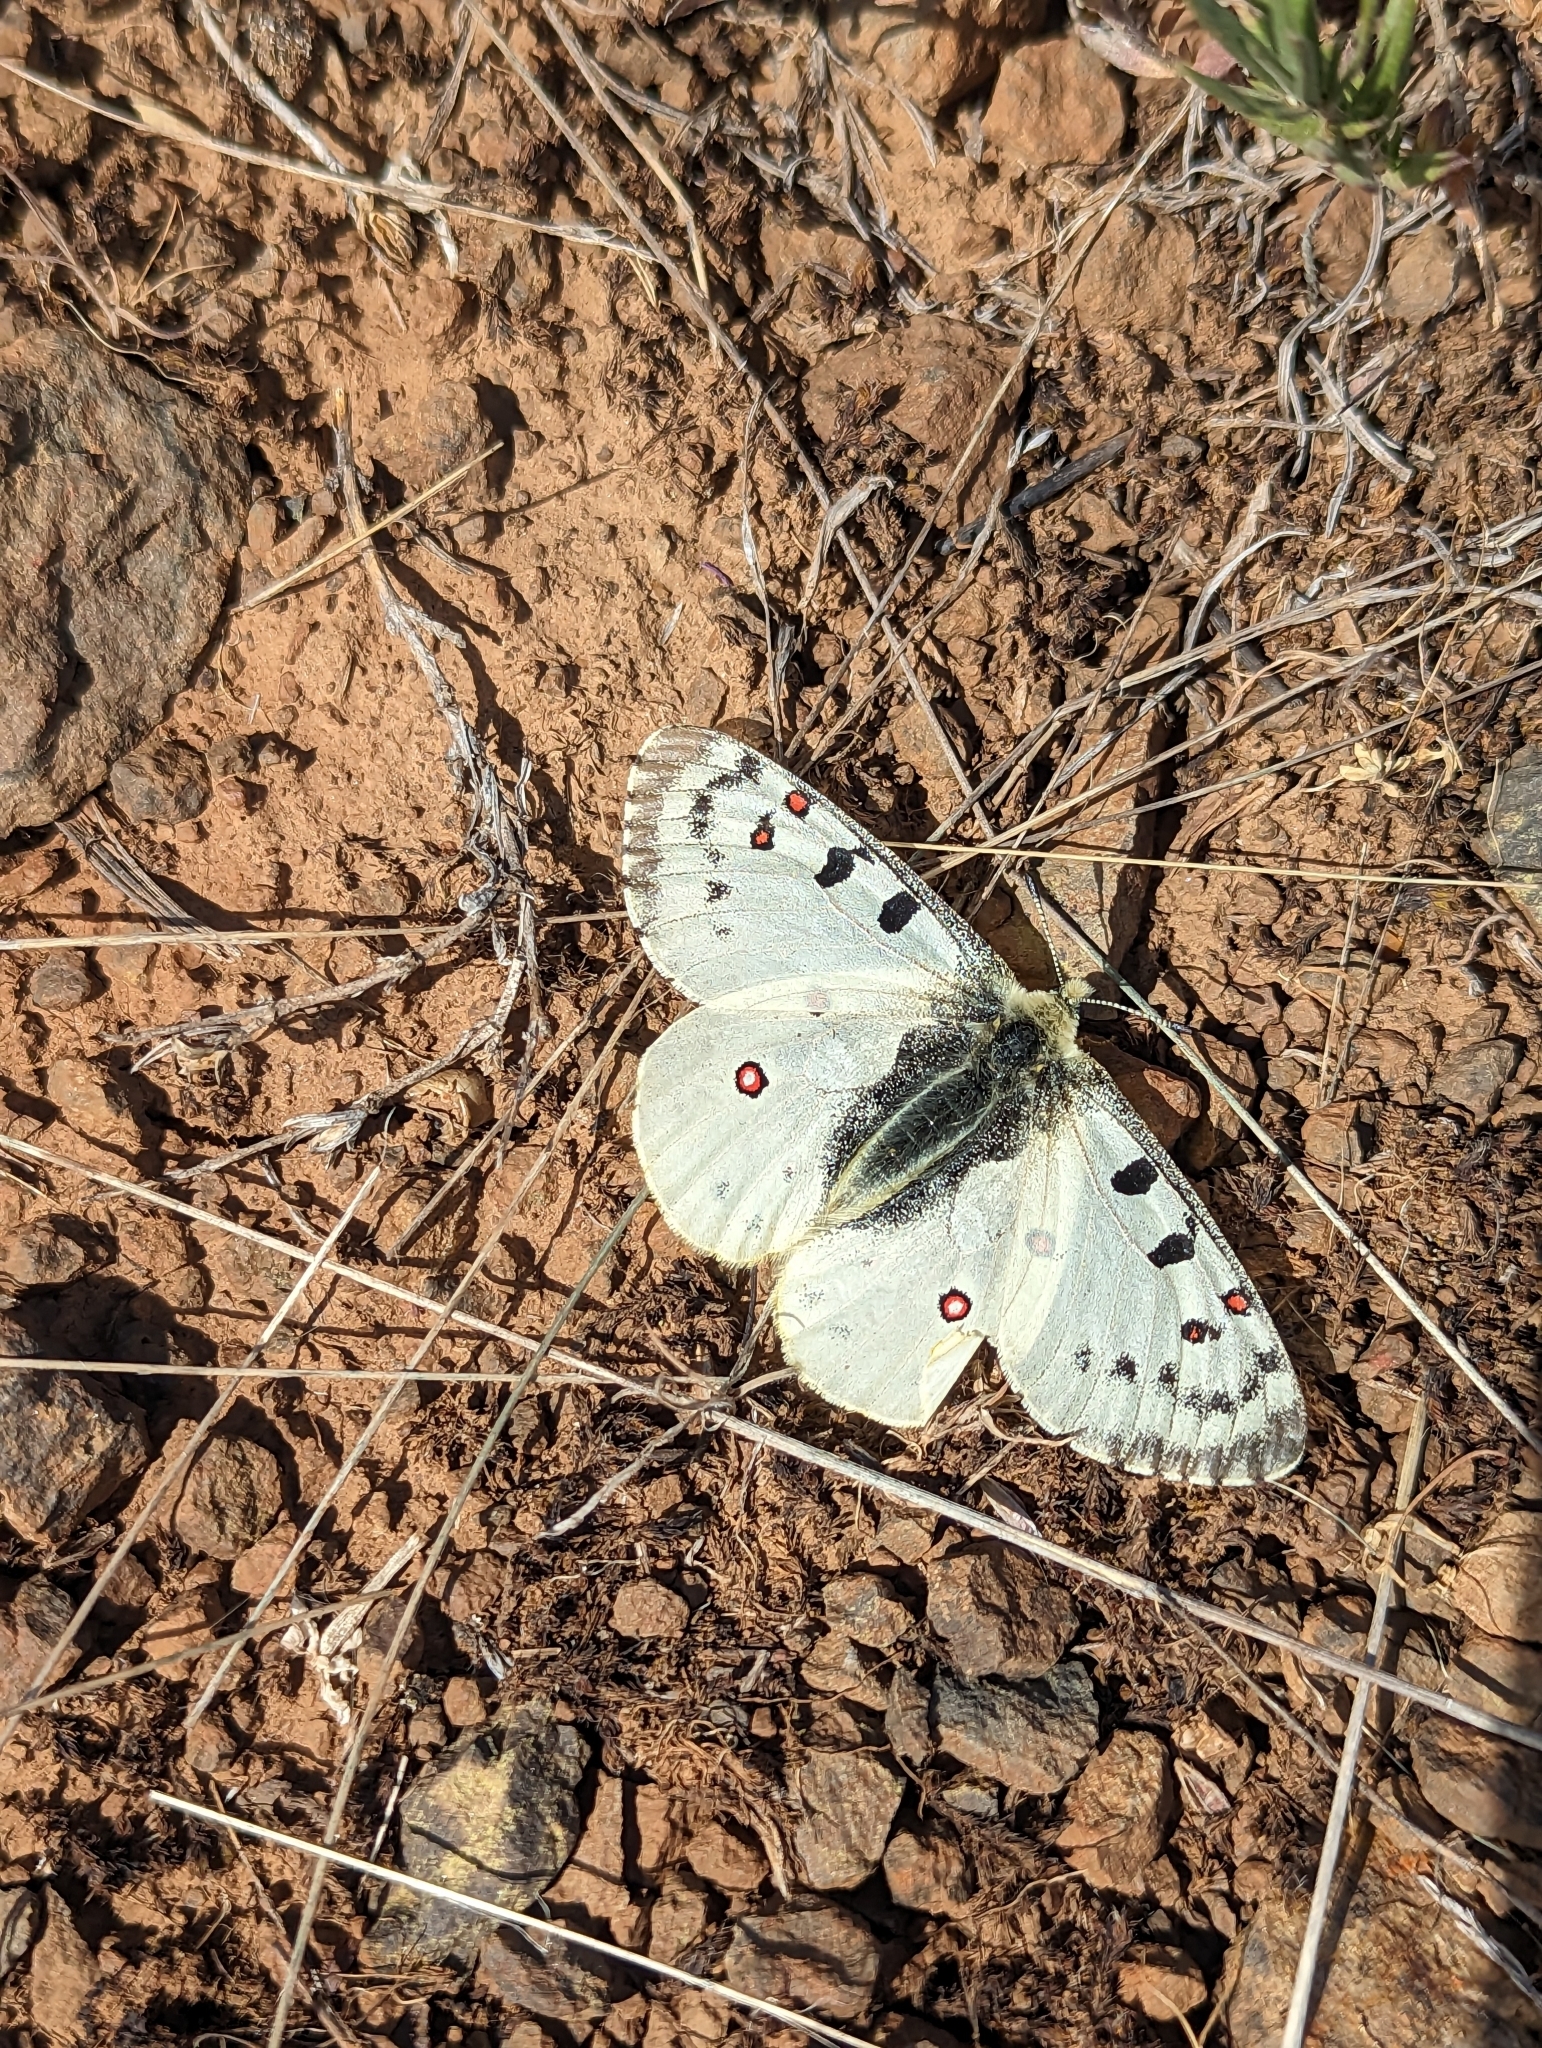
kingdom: Animalia
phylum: Arthropoda
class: Insecta
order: Lepidoptera
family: Papilionidae
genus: Parnassius
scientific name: Parnassius smintheus
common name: Mountain parnassian
